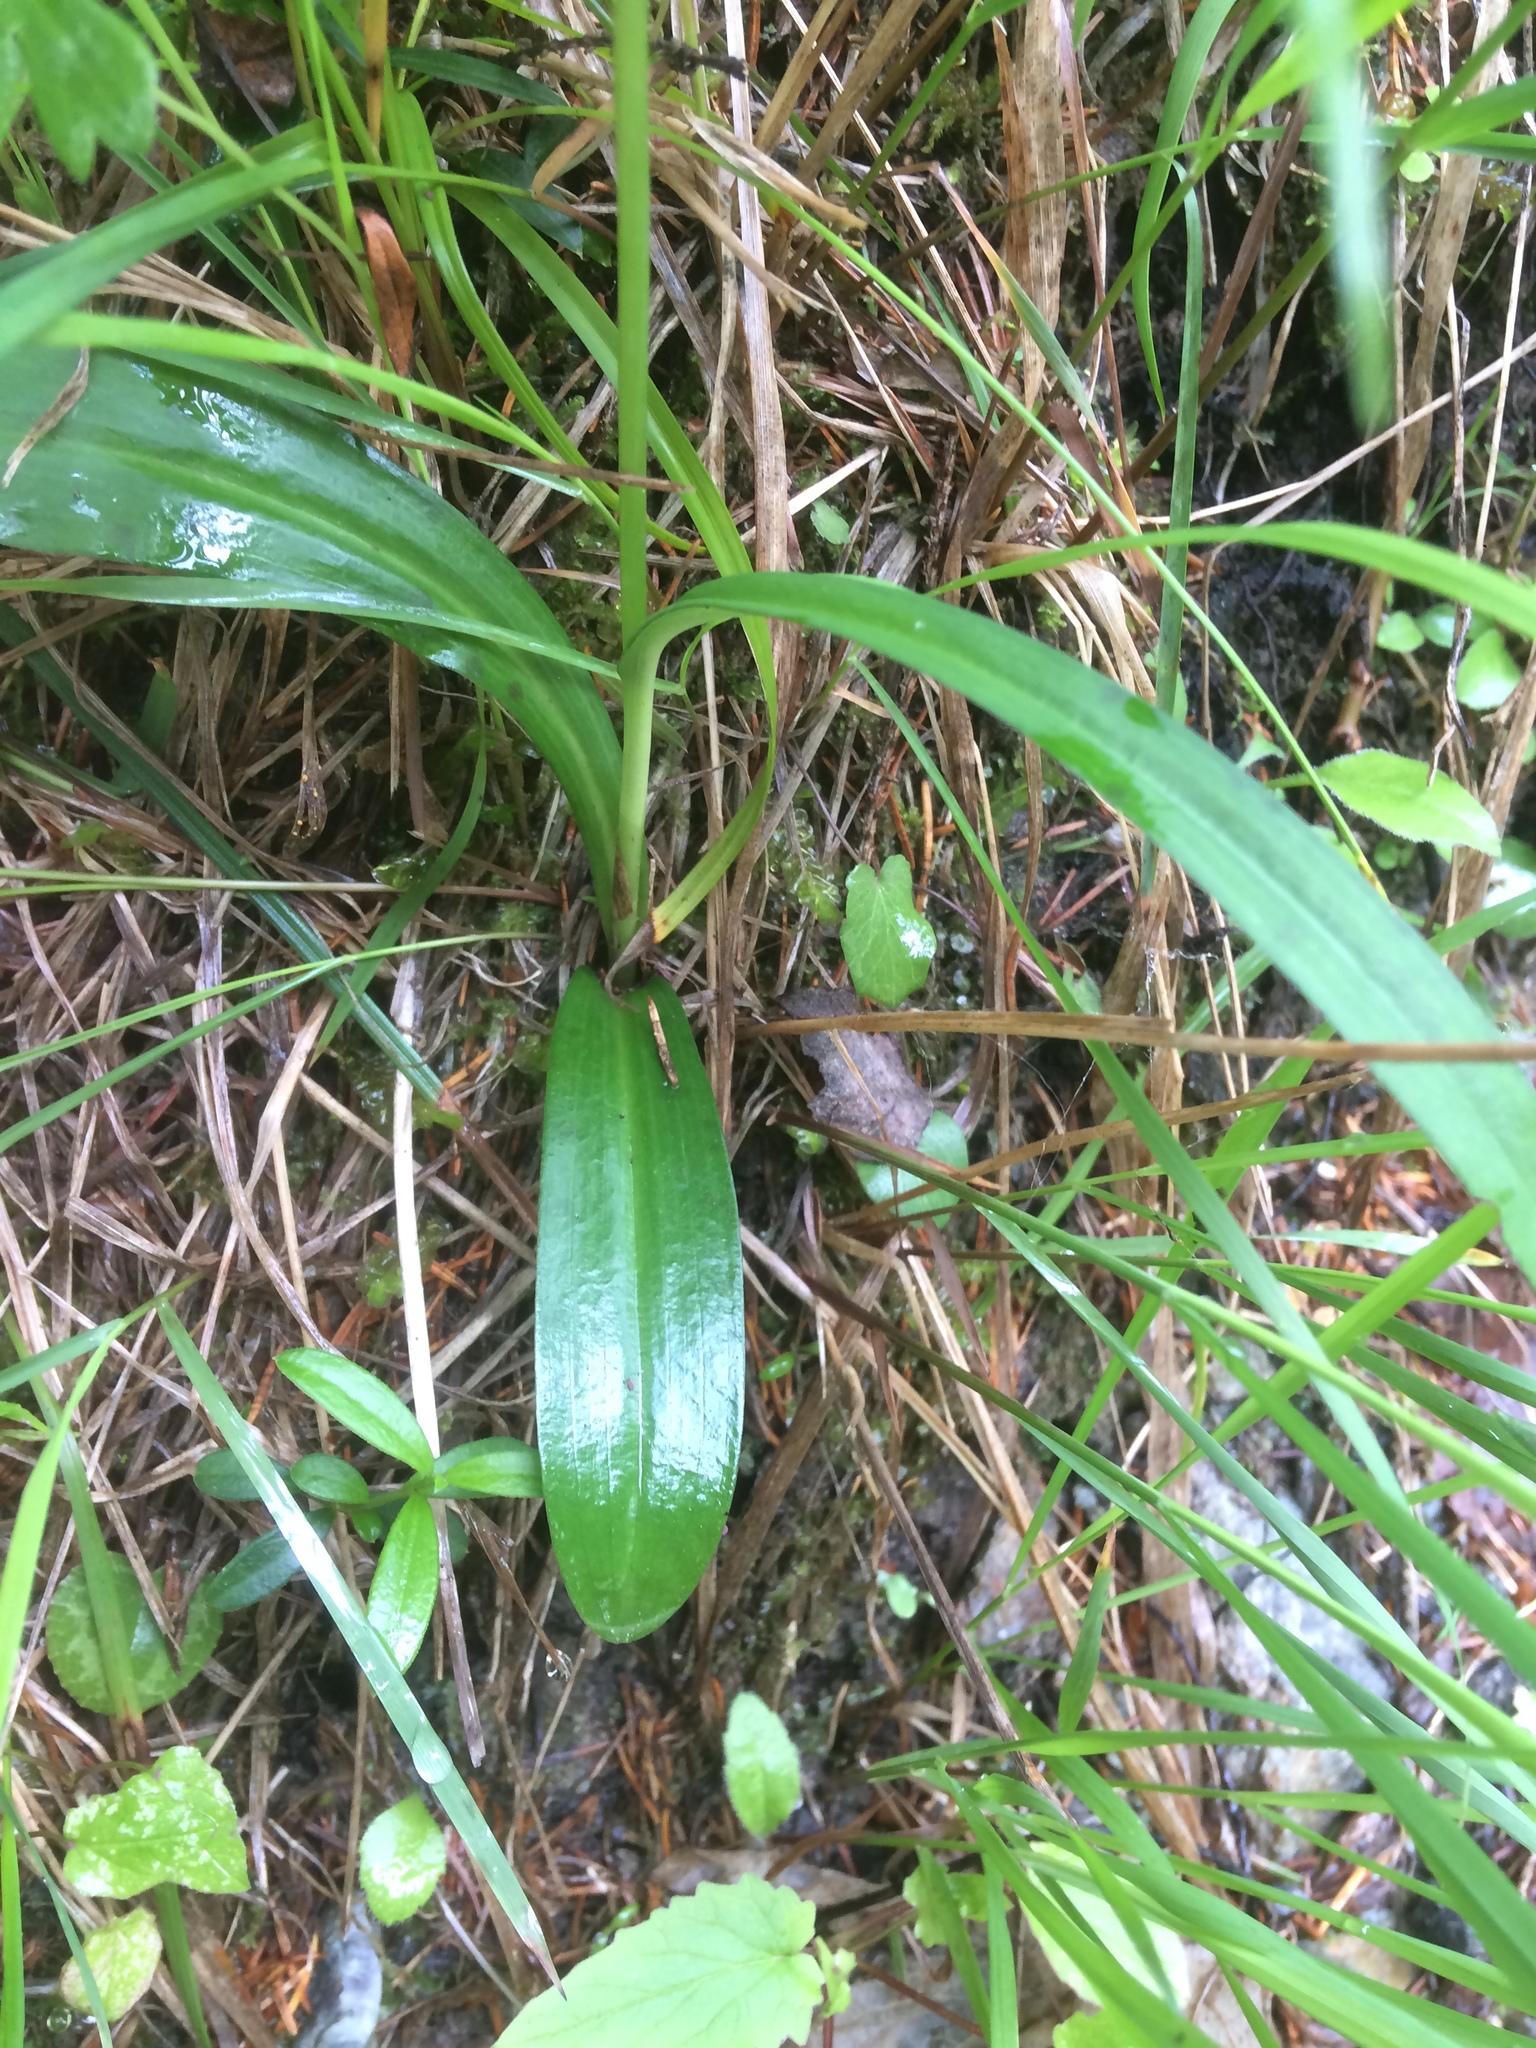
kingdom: Plantae
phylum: Tracheophyta
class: Liliopsida
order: Asparagales
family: Orchidaceae
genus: Dactylorhiza
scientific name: Dactylorhiza maculata
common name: Heath spotted-orchid
